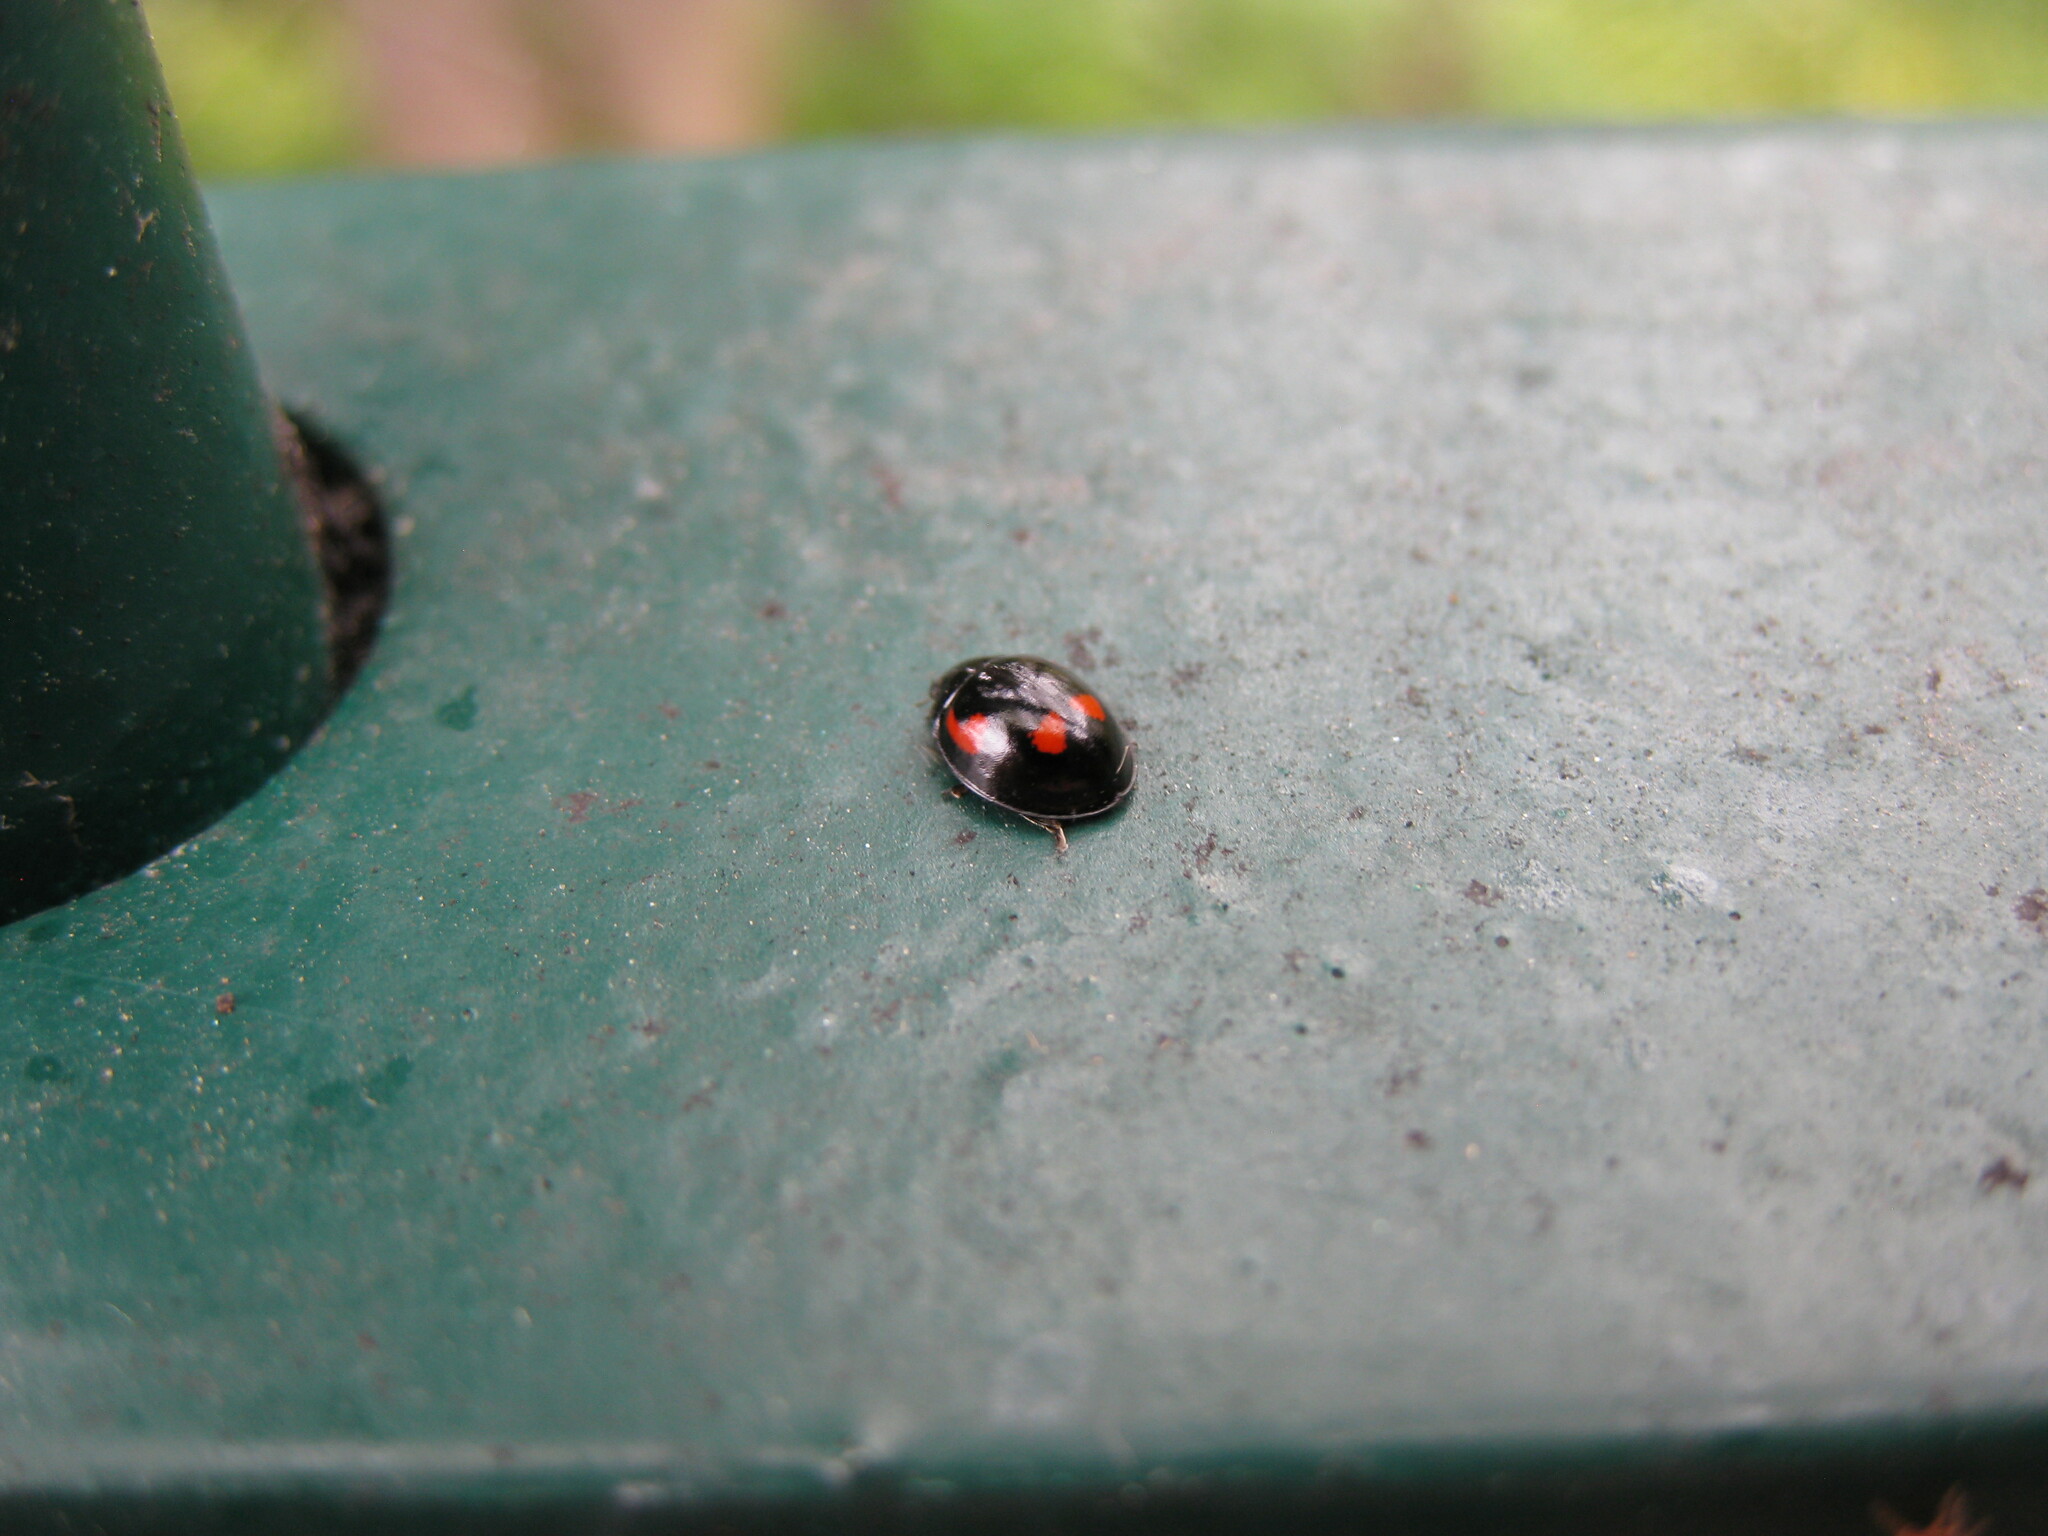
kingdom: Animalia
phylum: Arthropoda
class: Insecta
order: Coleoptera
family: Coccinellidae
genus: Brumus
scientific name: Brumus quadripustulatus
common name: Ladybird beetle
